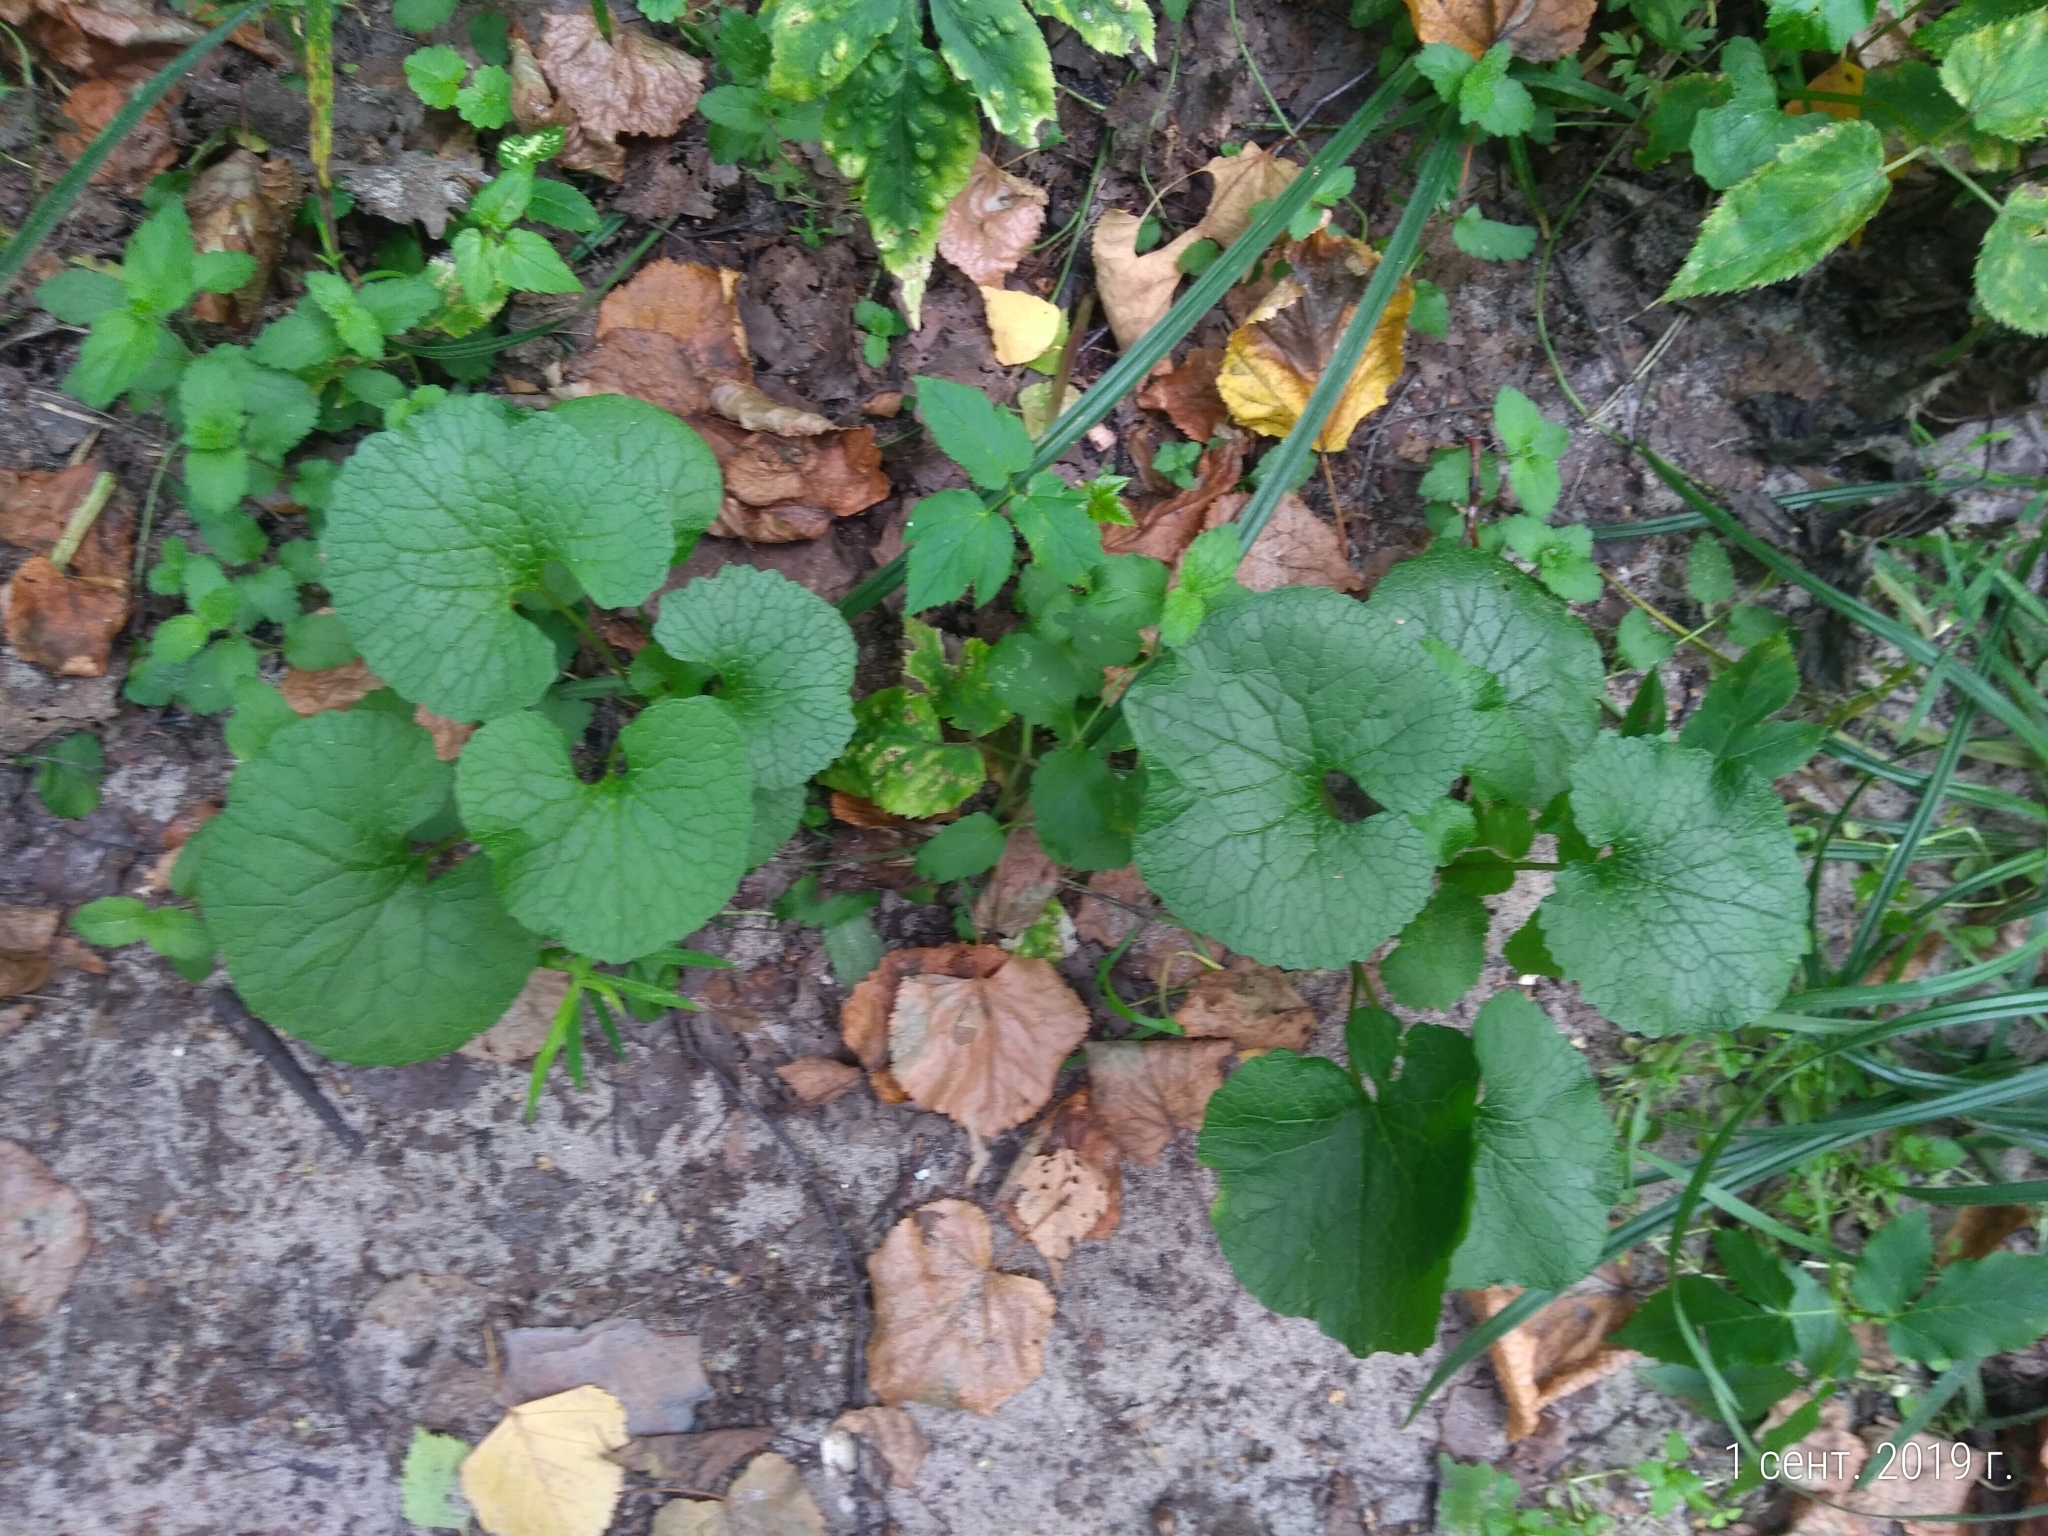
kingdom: Plantae
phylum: Tracheophyta
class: Magnoliopsida
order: Brassicales
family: Brassicaceae
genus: Alliaria
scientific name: Alliaria petiolata
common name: Garlic mustard
